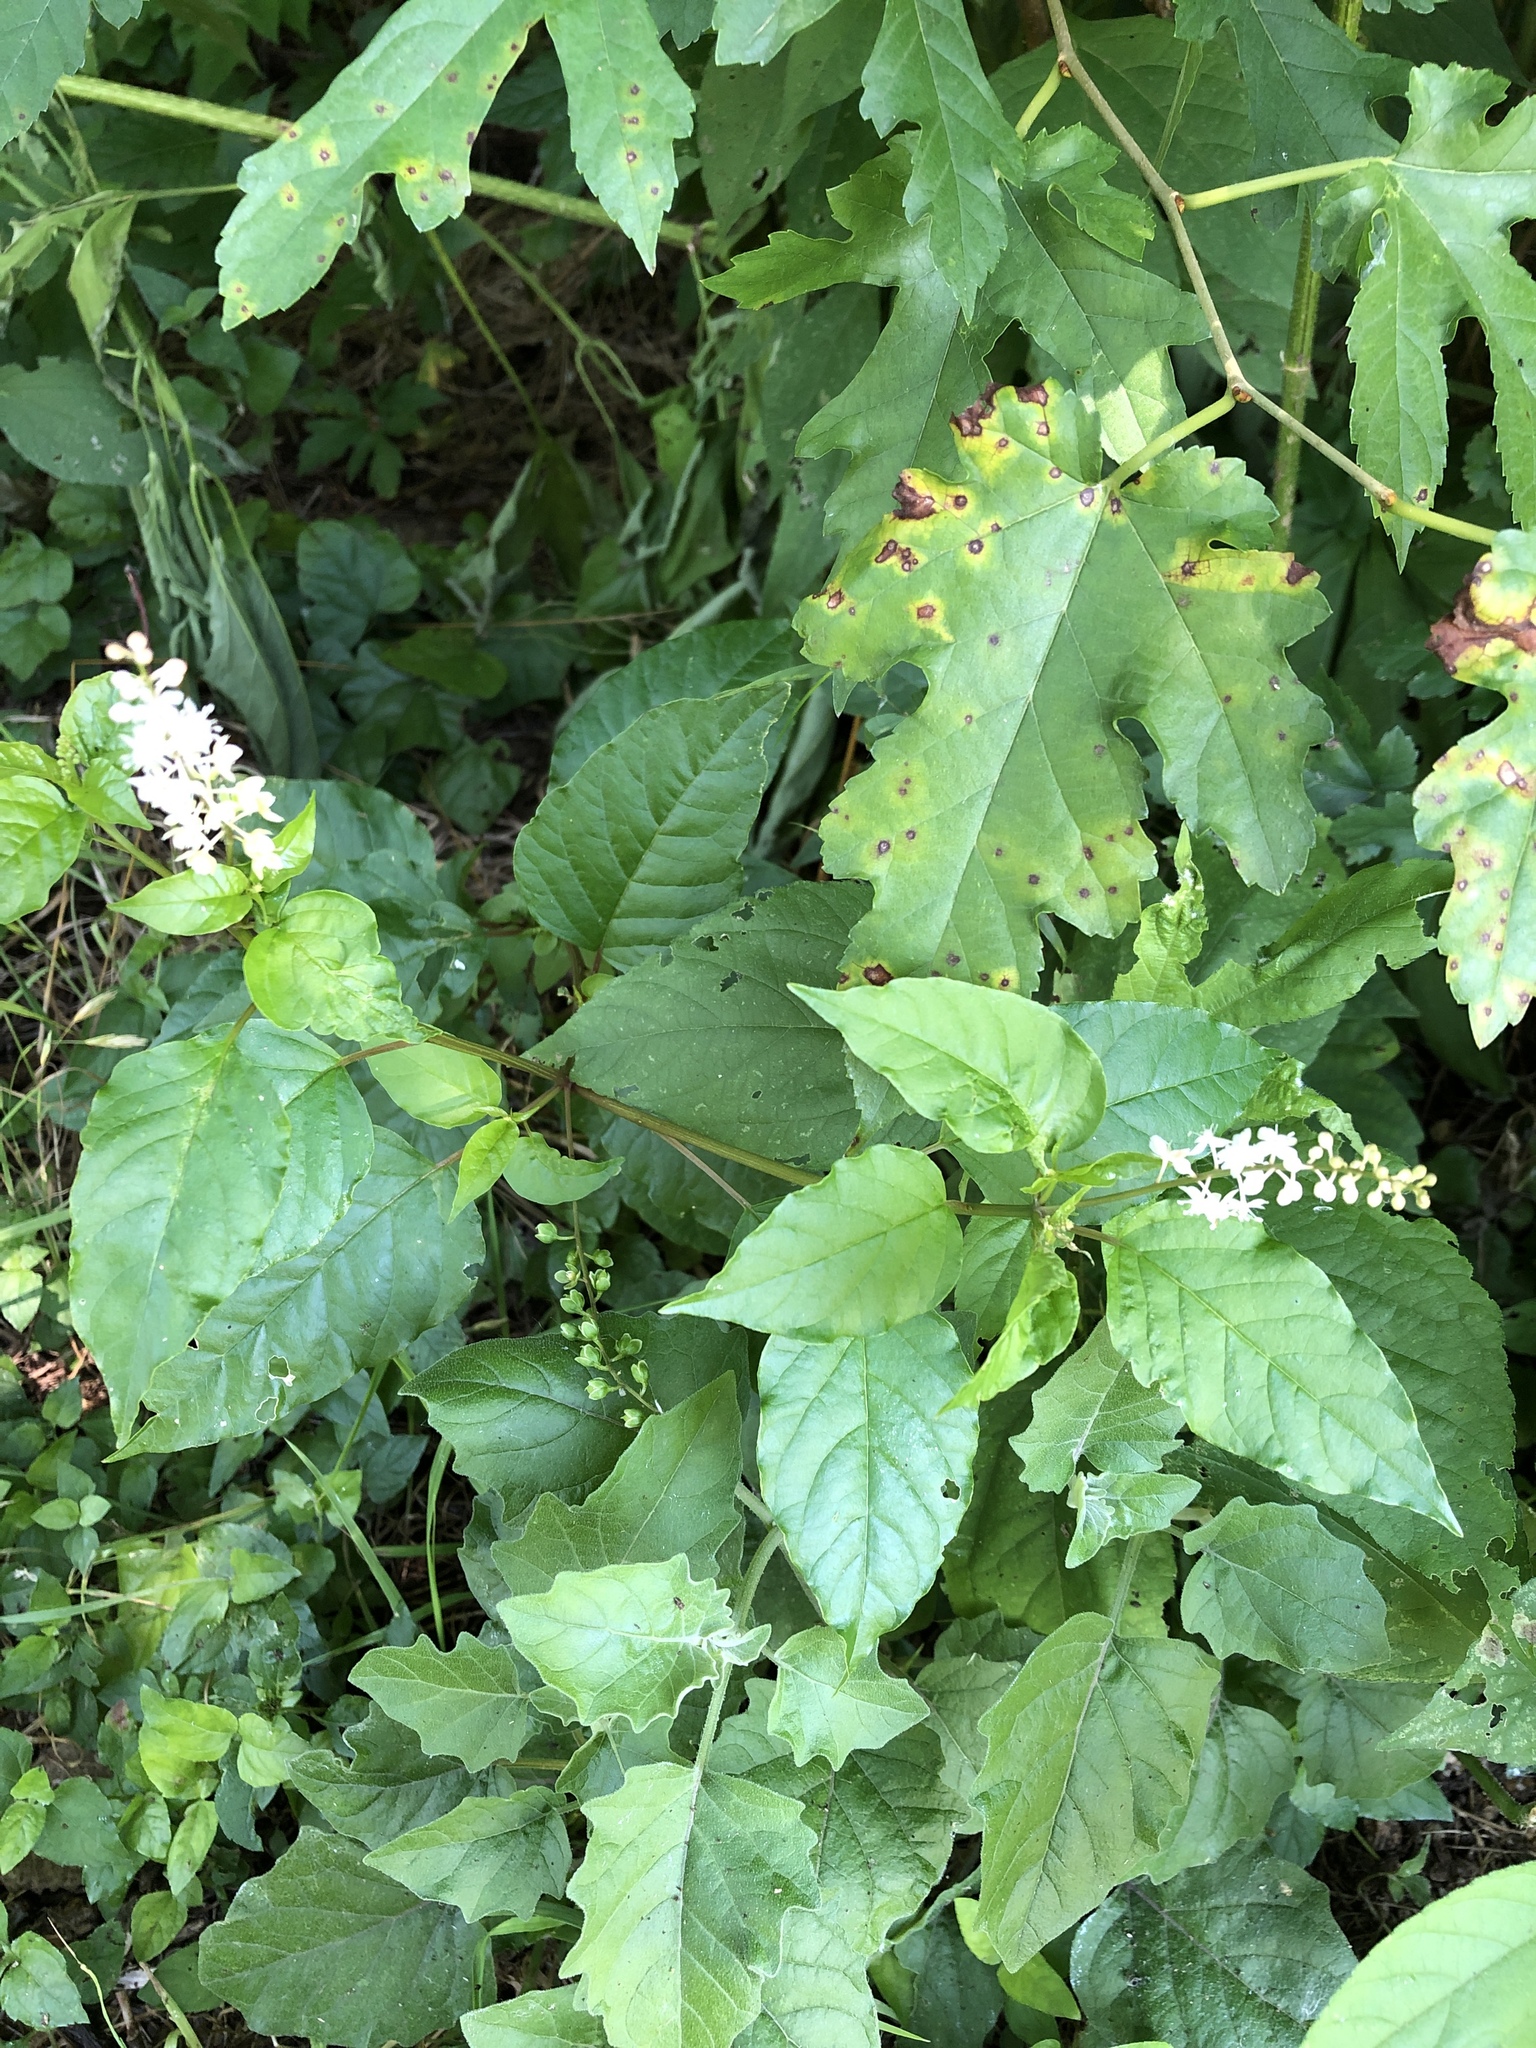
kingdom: Plantae
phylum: Tracheophyta
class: Magnoliopsida
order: Caryophyllales
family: Phytolaccaceae
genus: Rivina
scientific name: Rivina humilis
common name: Rougeplant
